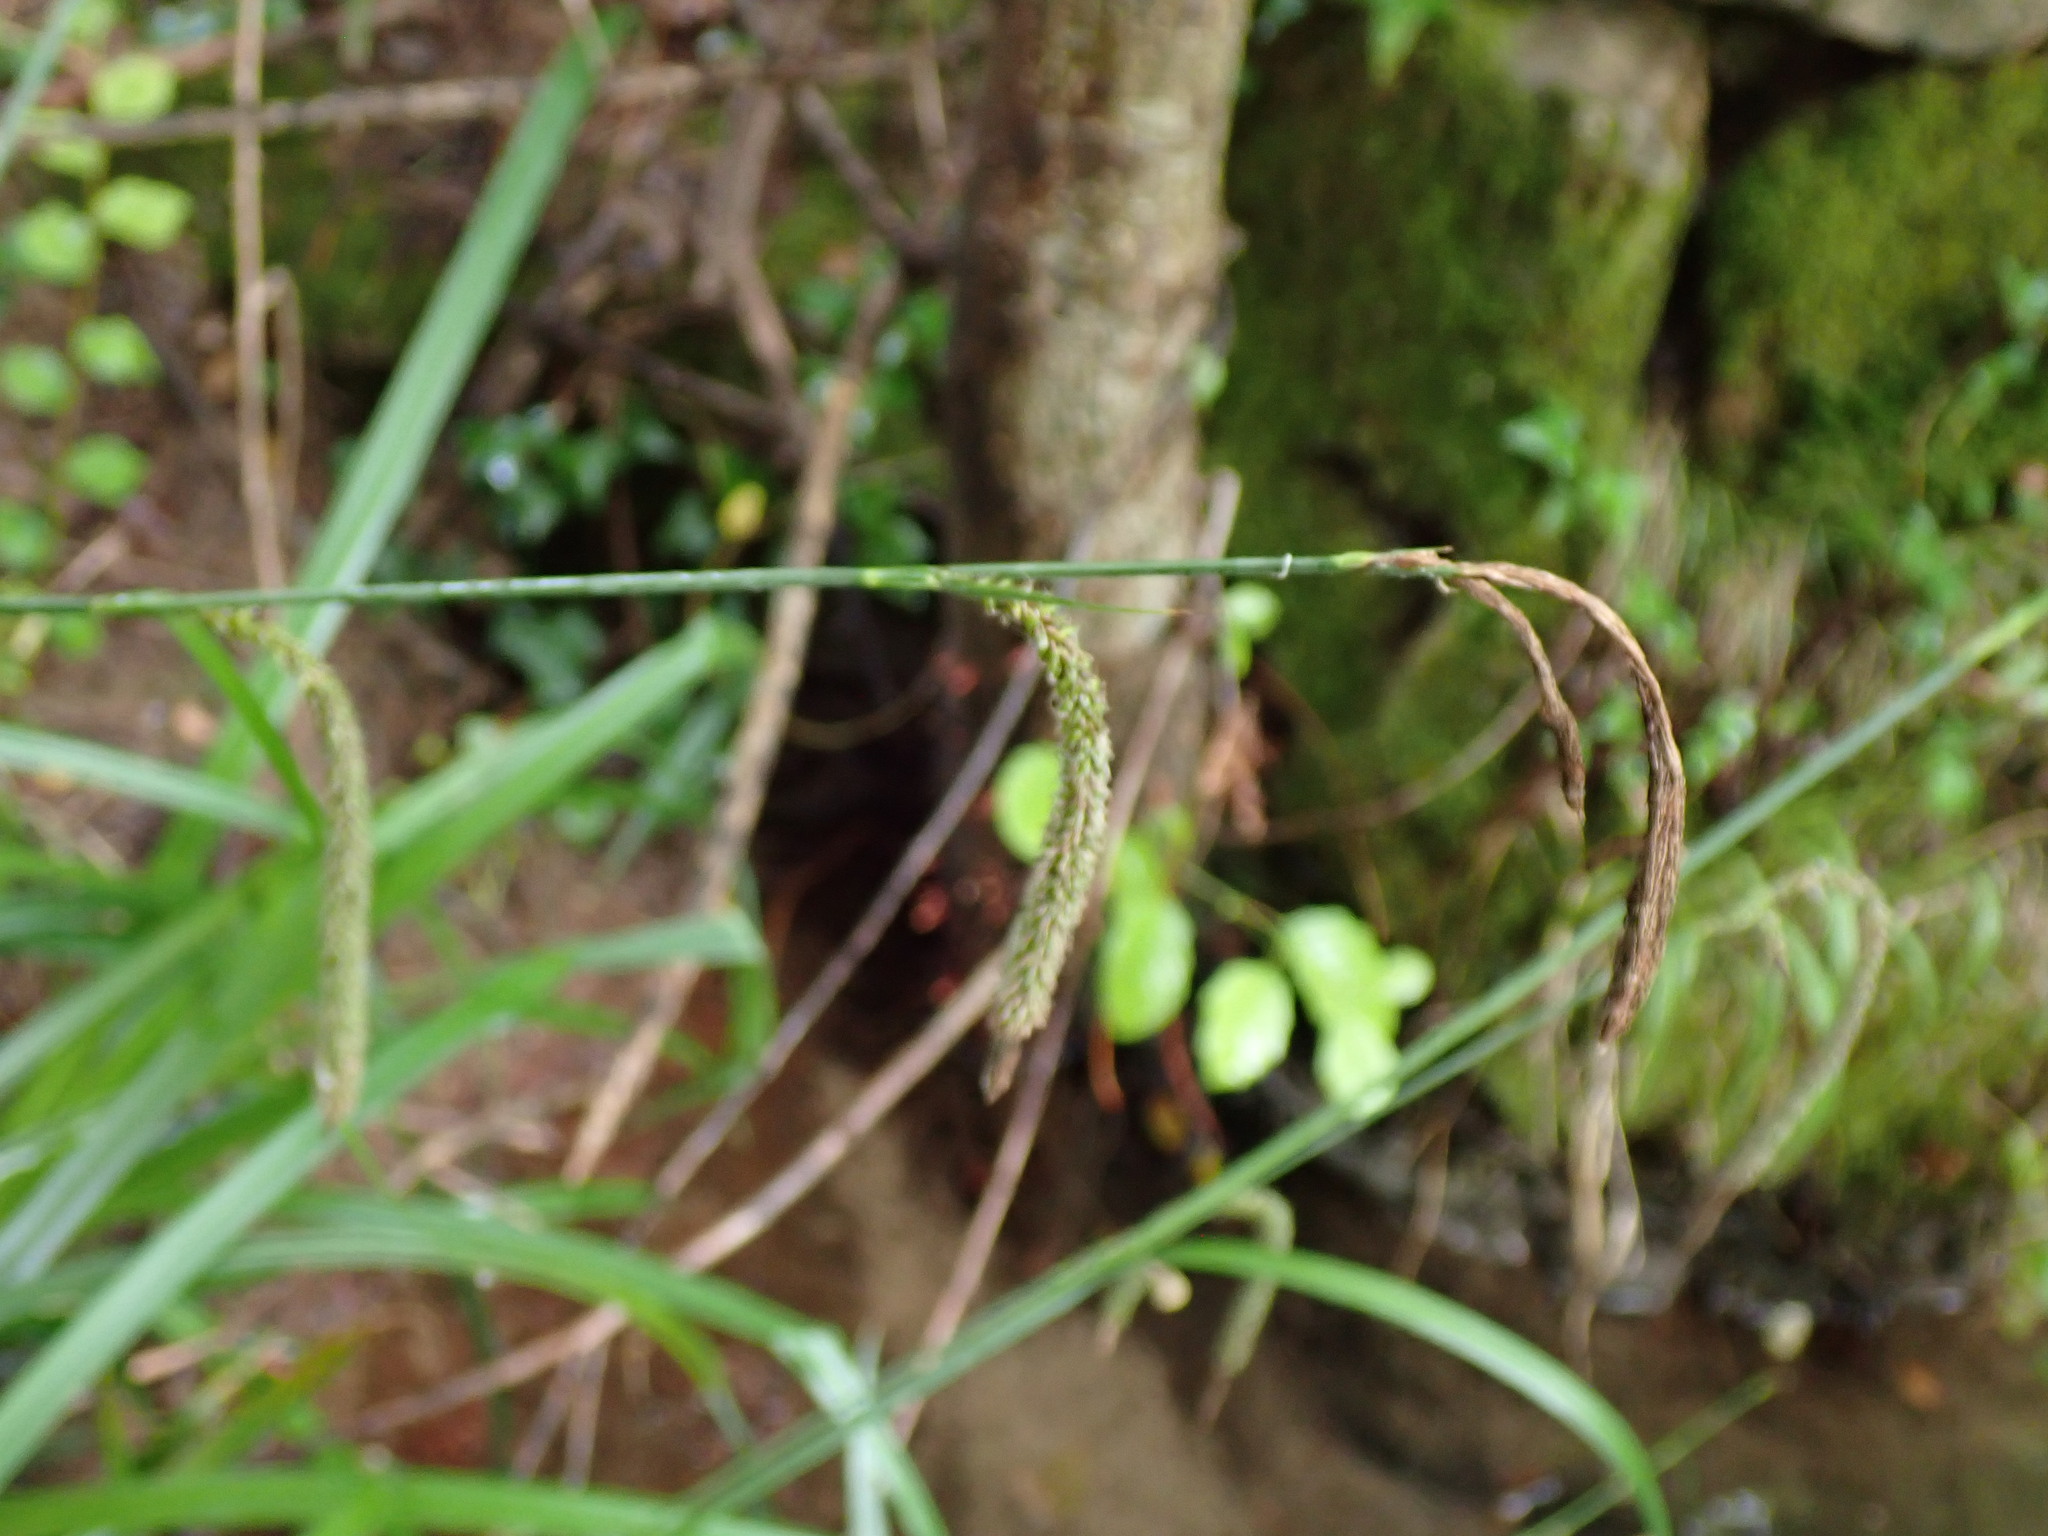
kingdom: Plantae
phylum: Tracheophyta
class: Liliopsida
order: Poales
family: Cyperaceae
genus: Carex
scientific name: Carex pendula
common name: Pendulous sedge
